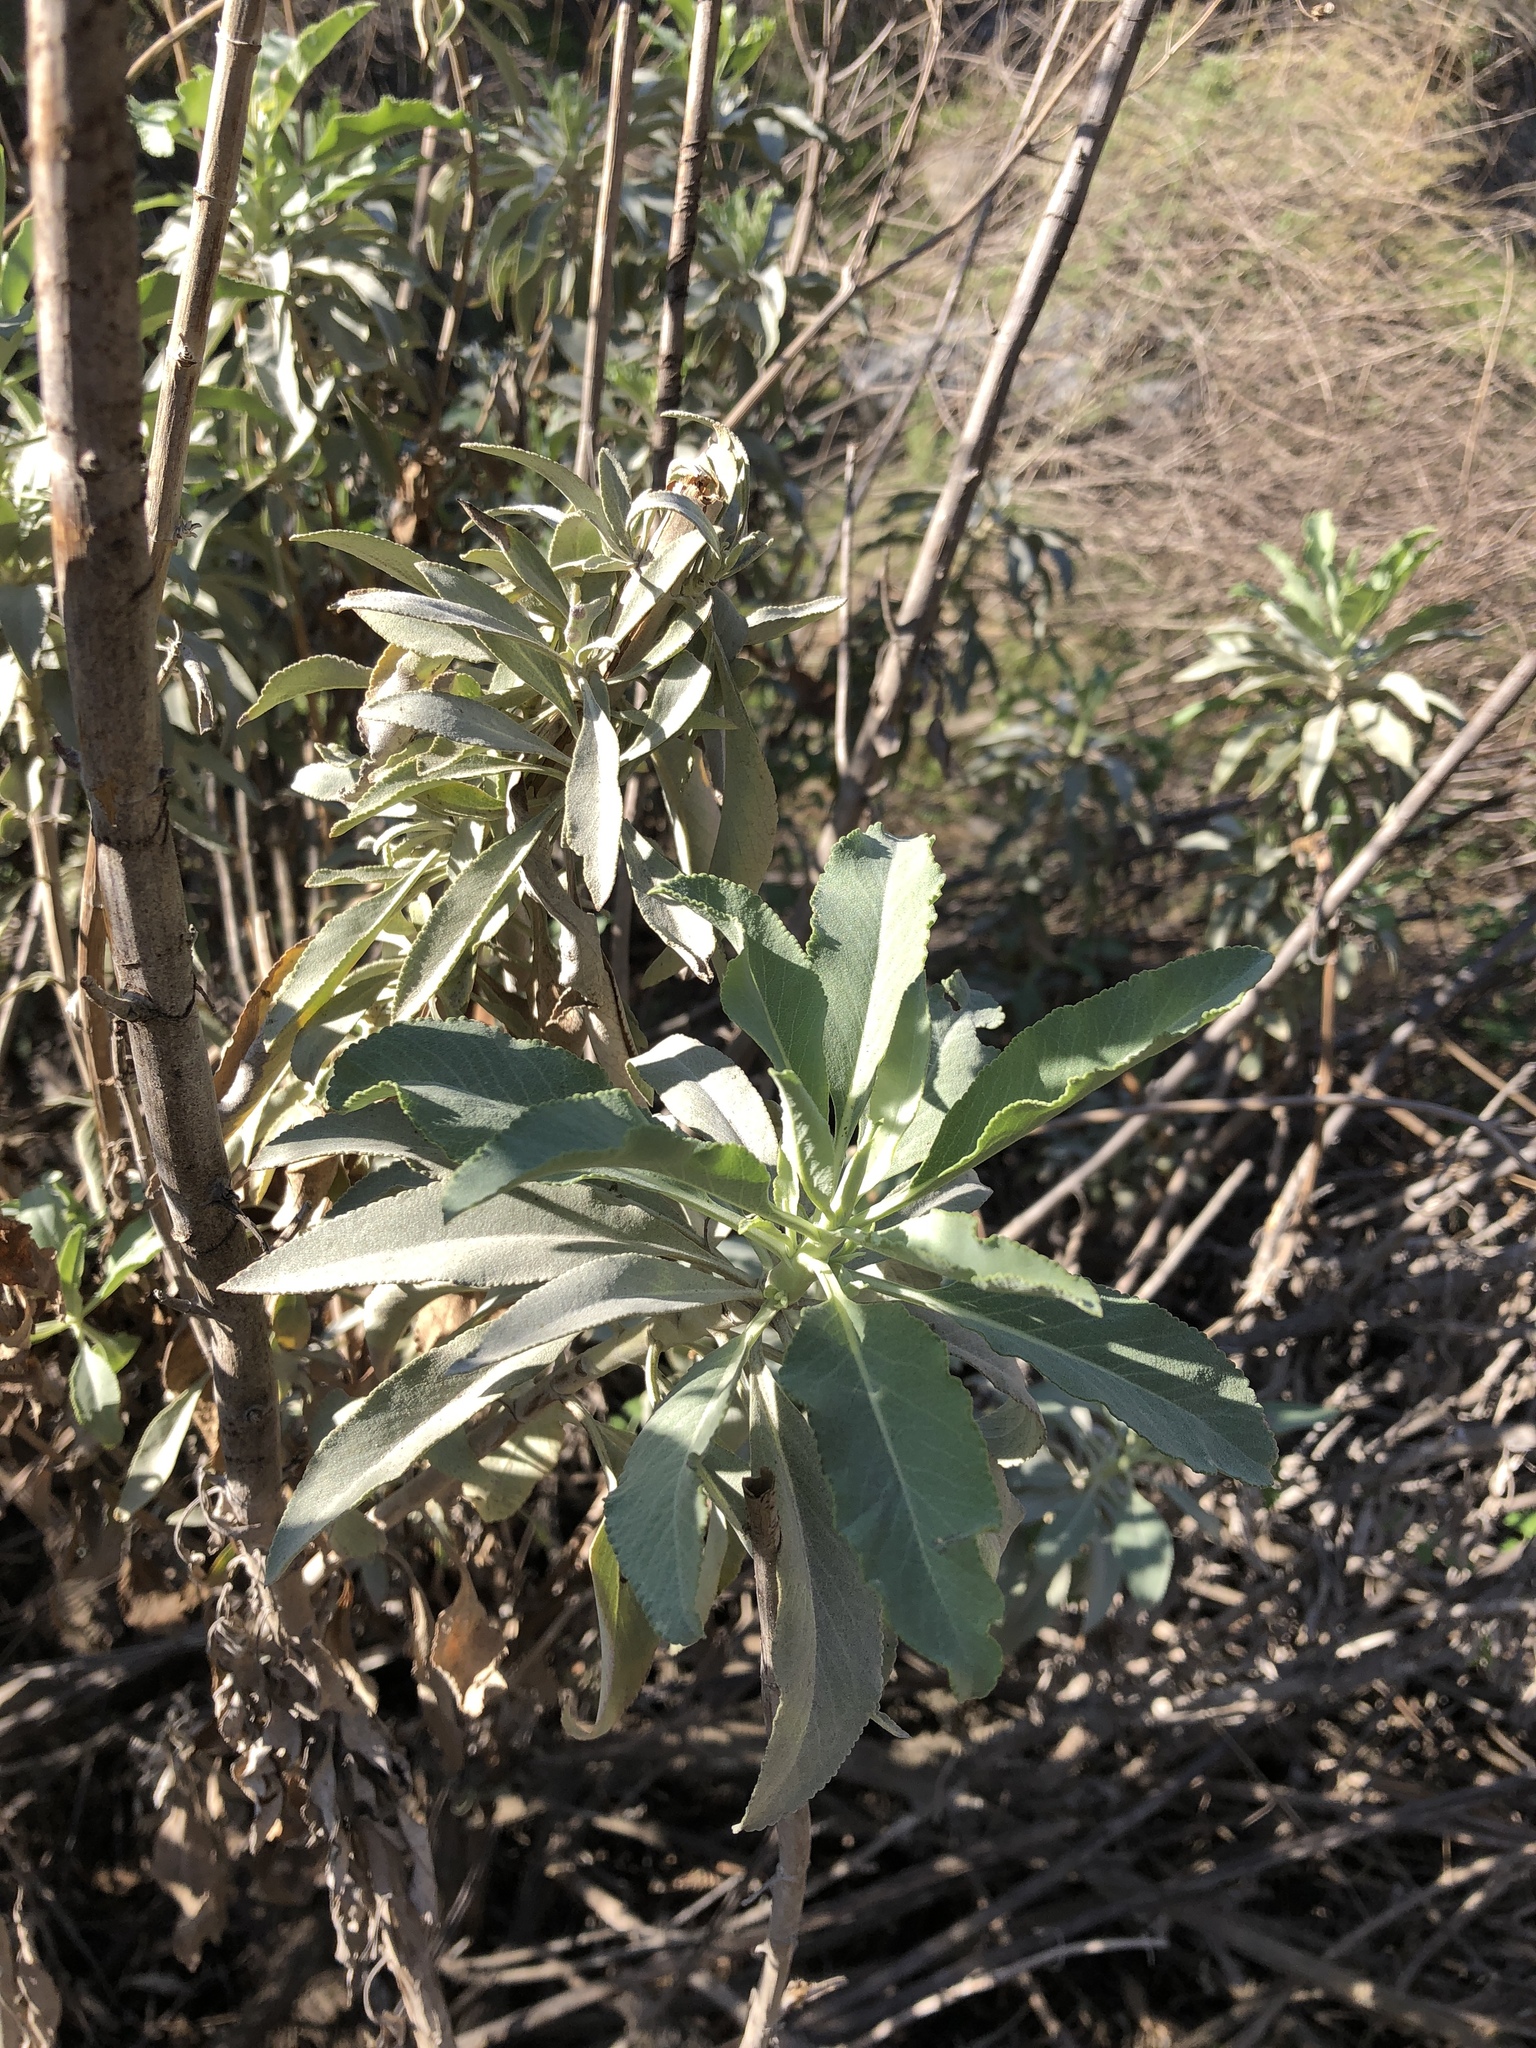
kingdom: Plantae
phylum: Tracheophyta
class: Magnoliopsida
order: Lamiales
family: Lamiaceae
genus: Salvia
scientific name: Salvia apiana
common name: White sage
